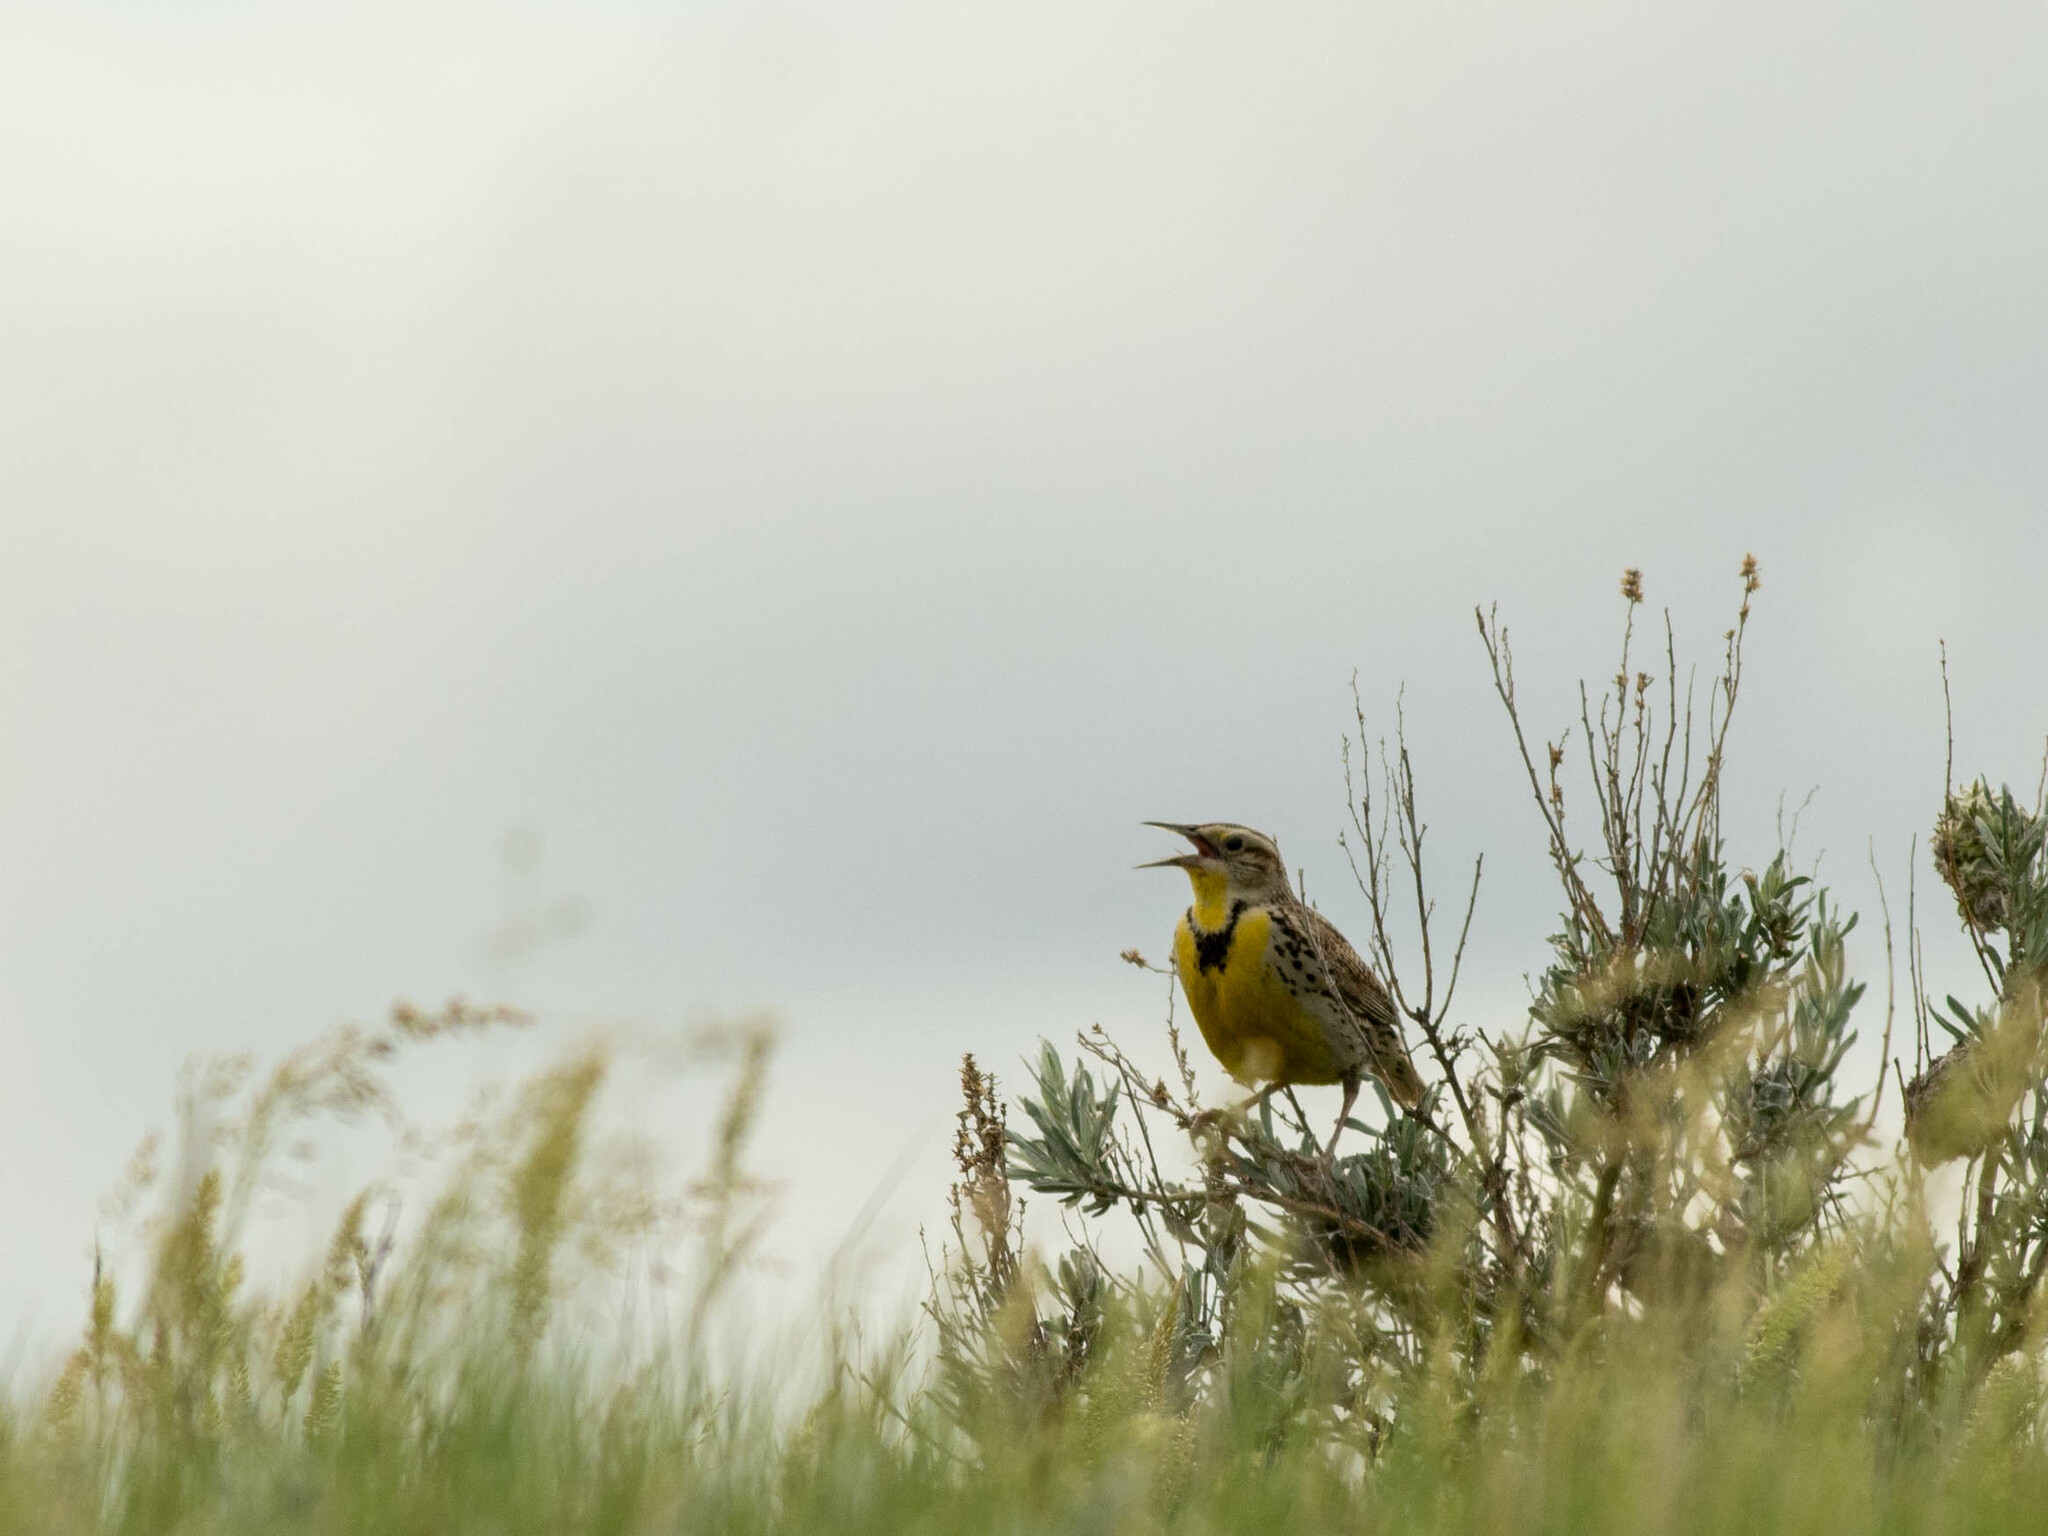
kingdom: Animalia
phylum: Chordata
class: Aves
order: Passeriformes
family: Icteridae
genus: Sturnella
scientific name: Sturnella neglecta
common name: Western meadowlark
